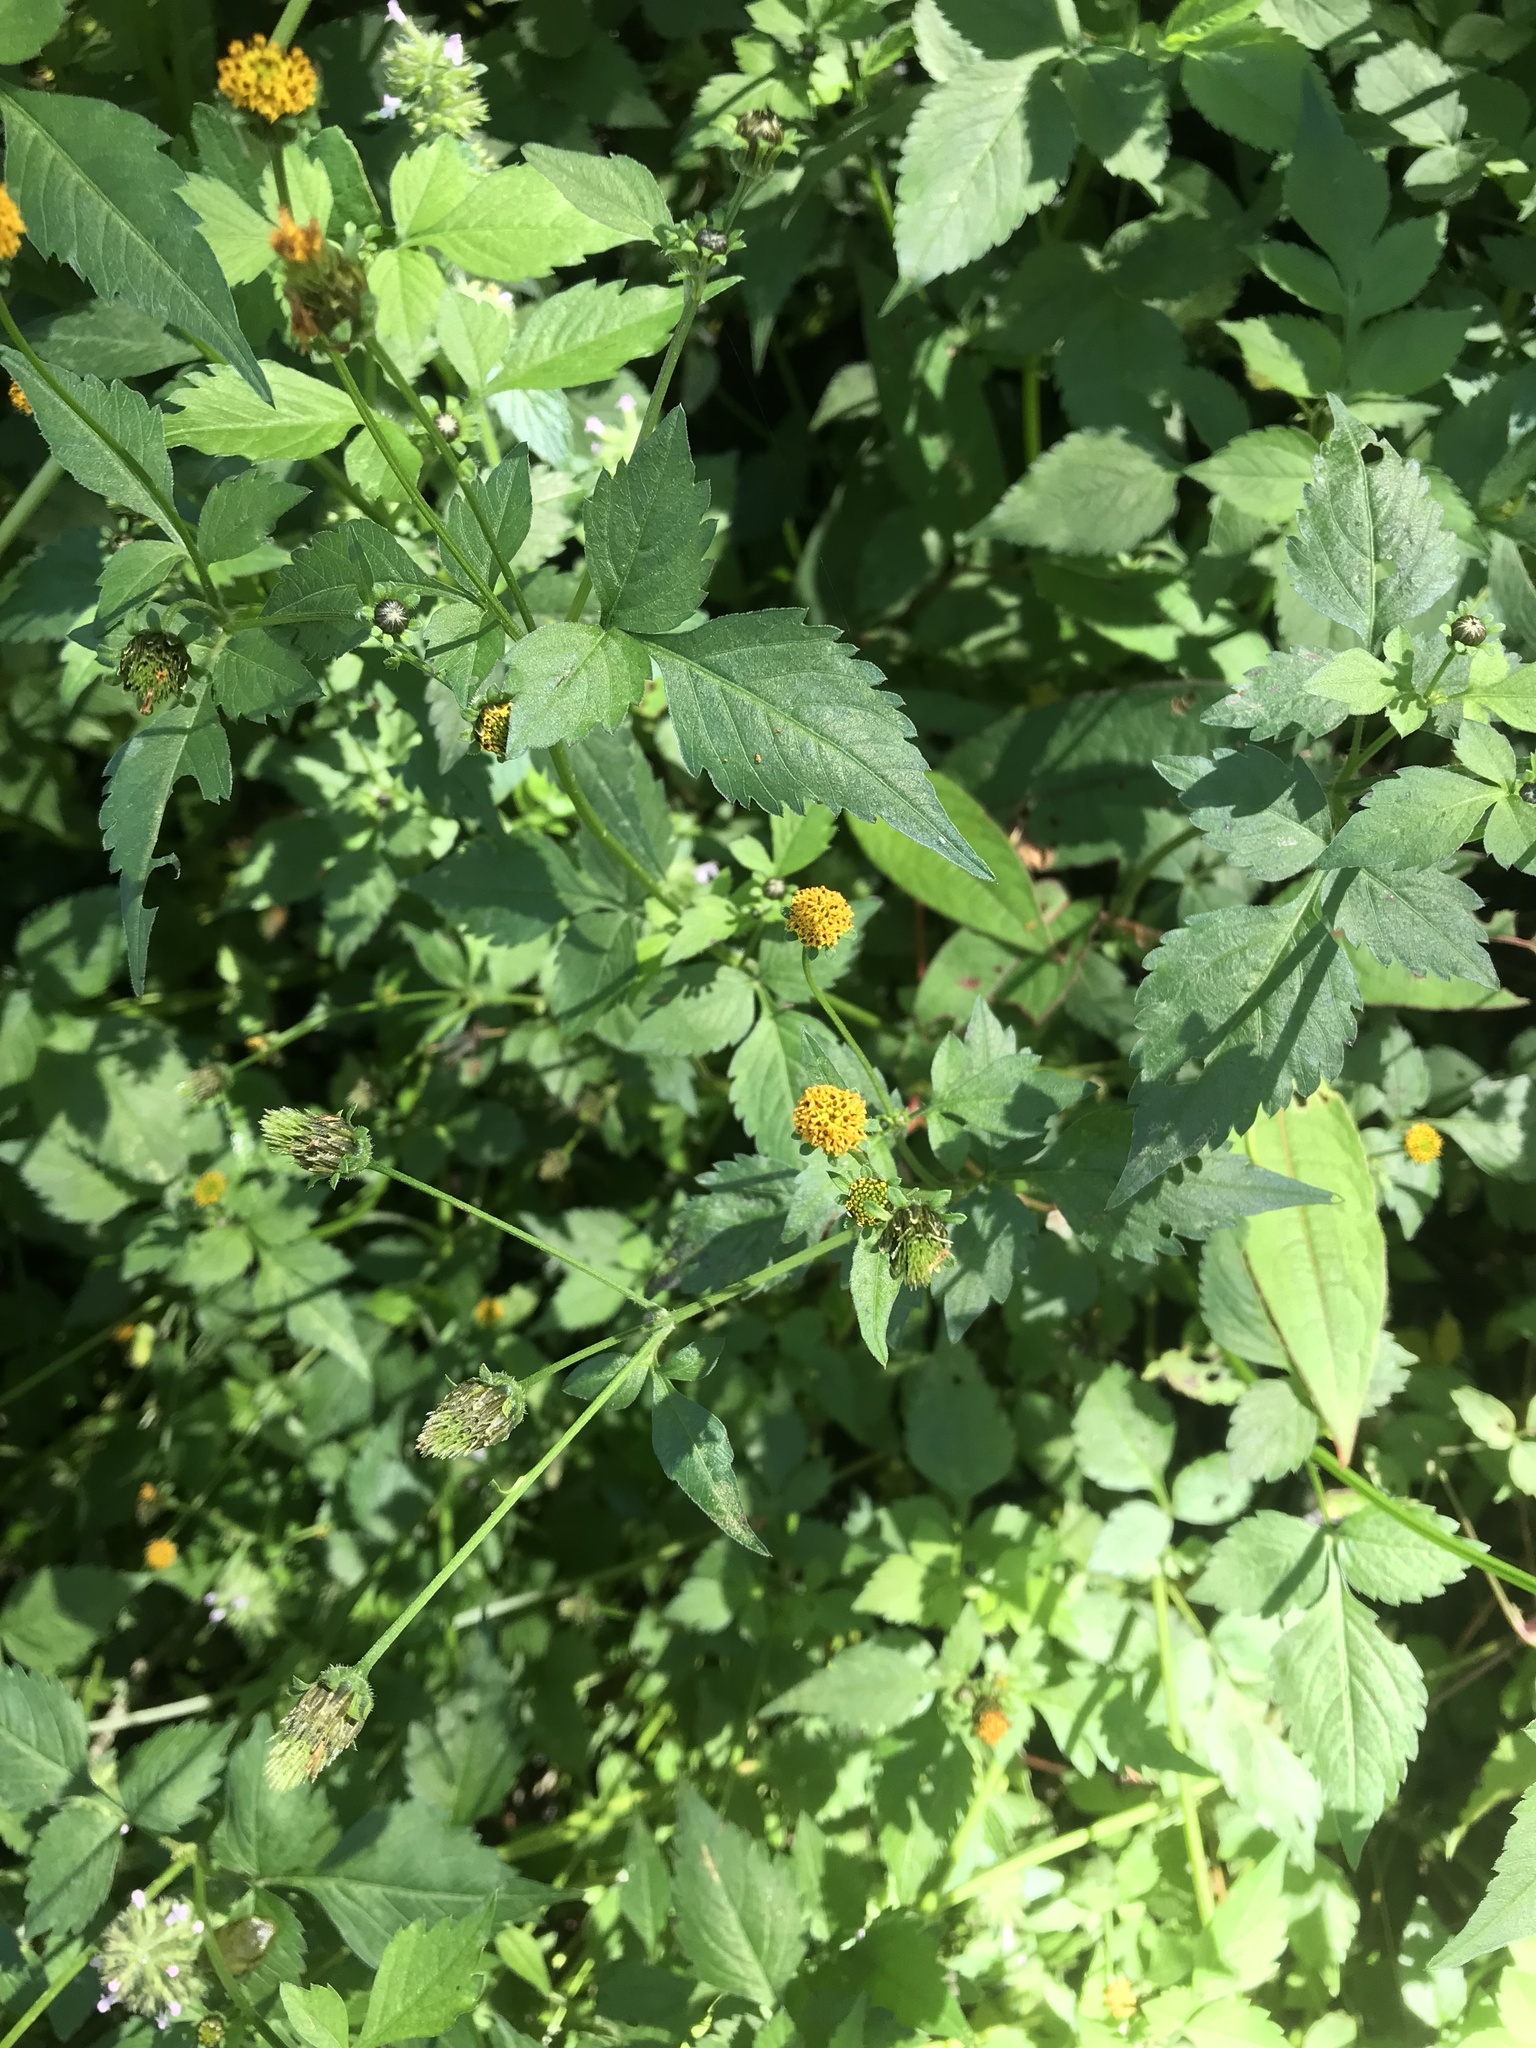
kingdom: Plantae
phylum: Tracheophyta
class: Magnoliopsida
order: Asterales
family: Asteraceae
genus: Bidens
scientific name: Bidens pilosa
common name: Black-jack
